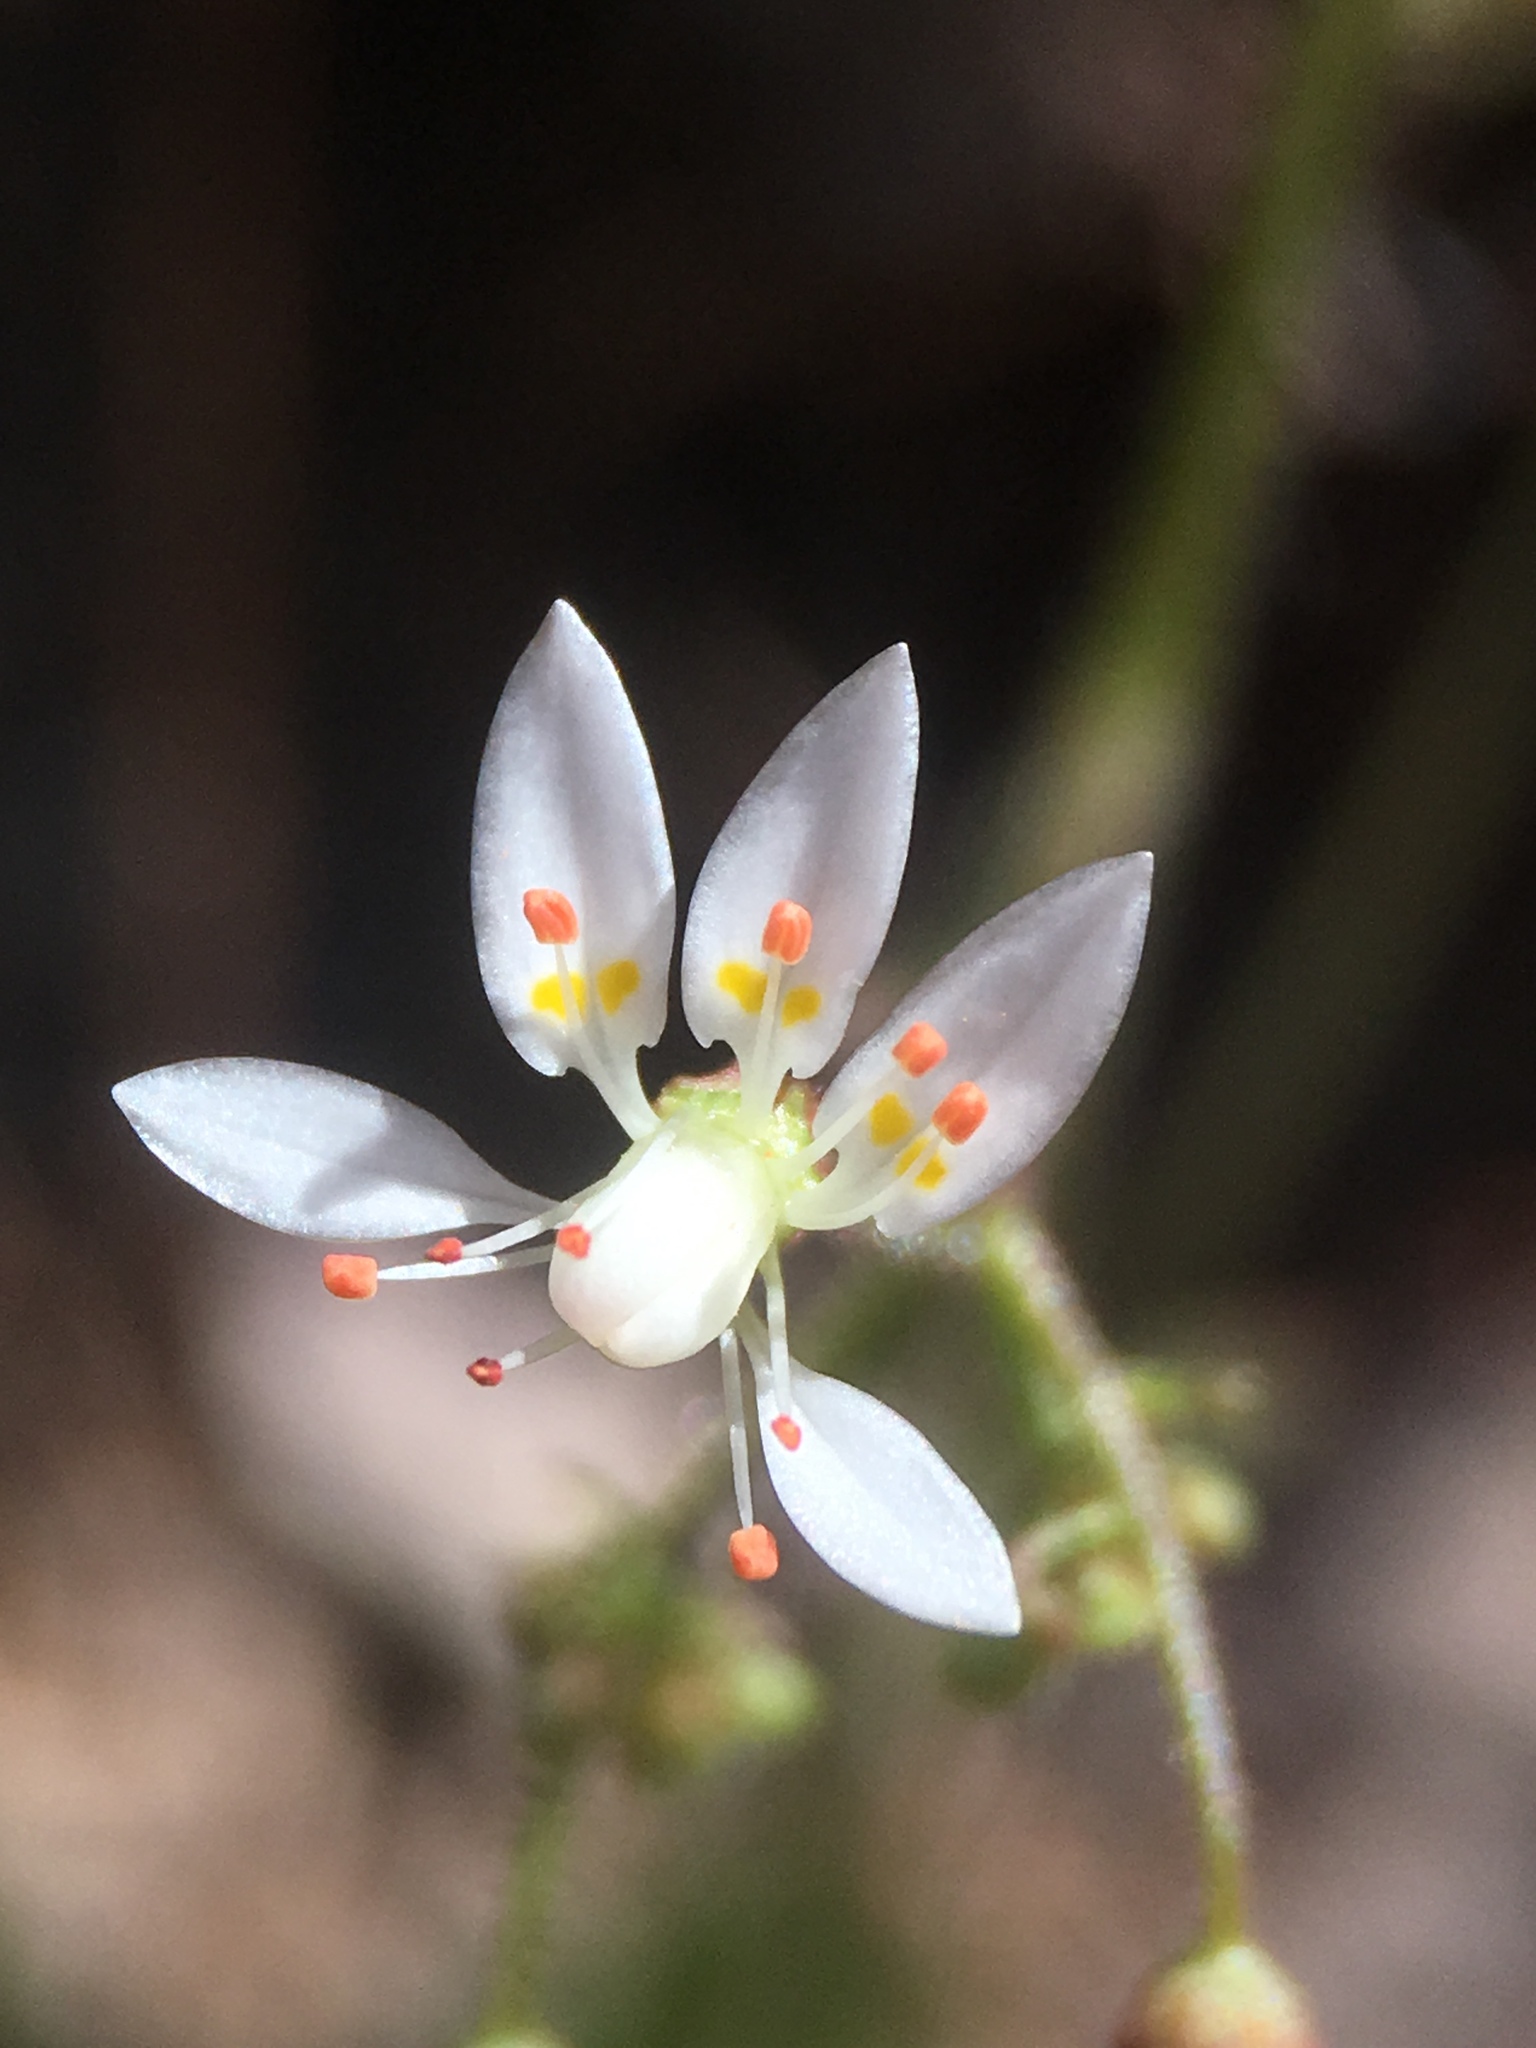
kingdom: Plantae
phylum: Tracheophyta
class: Magnoliopsida
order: Saxifragales
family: Saxifragaceae
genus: Micranthes
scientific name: Micranthes ferruginea
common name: Rusty saxifrage
